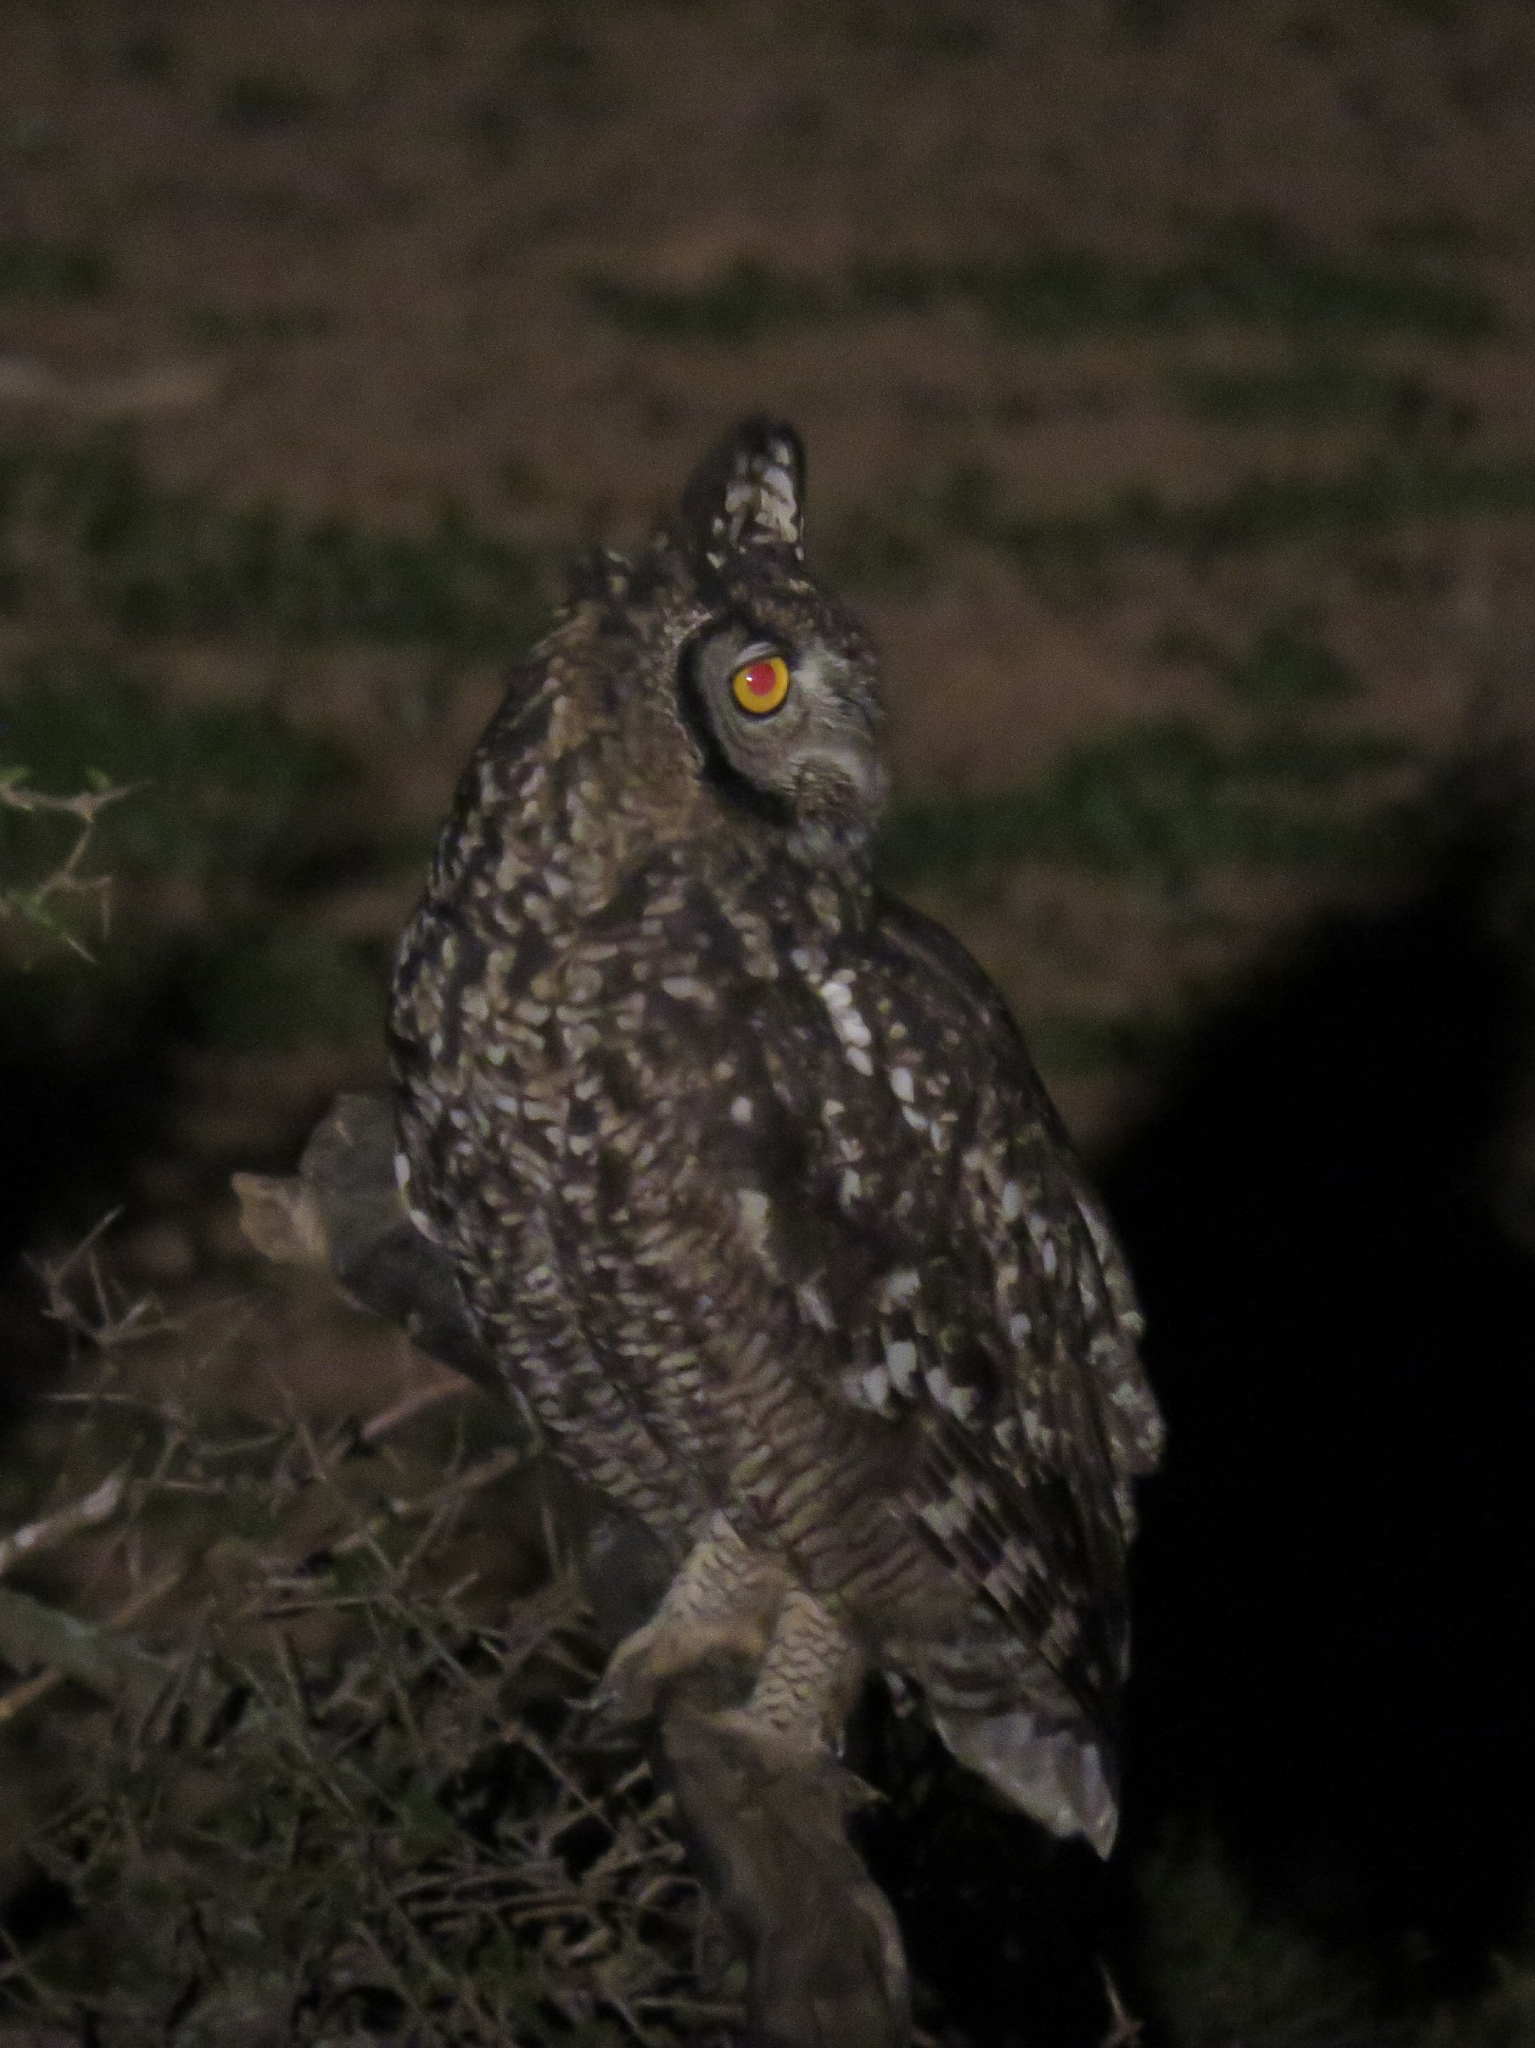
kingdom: Animalia
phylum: Chordata
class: Aves
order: Strigiformes
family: Strigidae
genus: Bubo
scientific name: Bubo africanus
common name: Spotted eagle-owl
